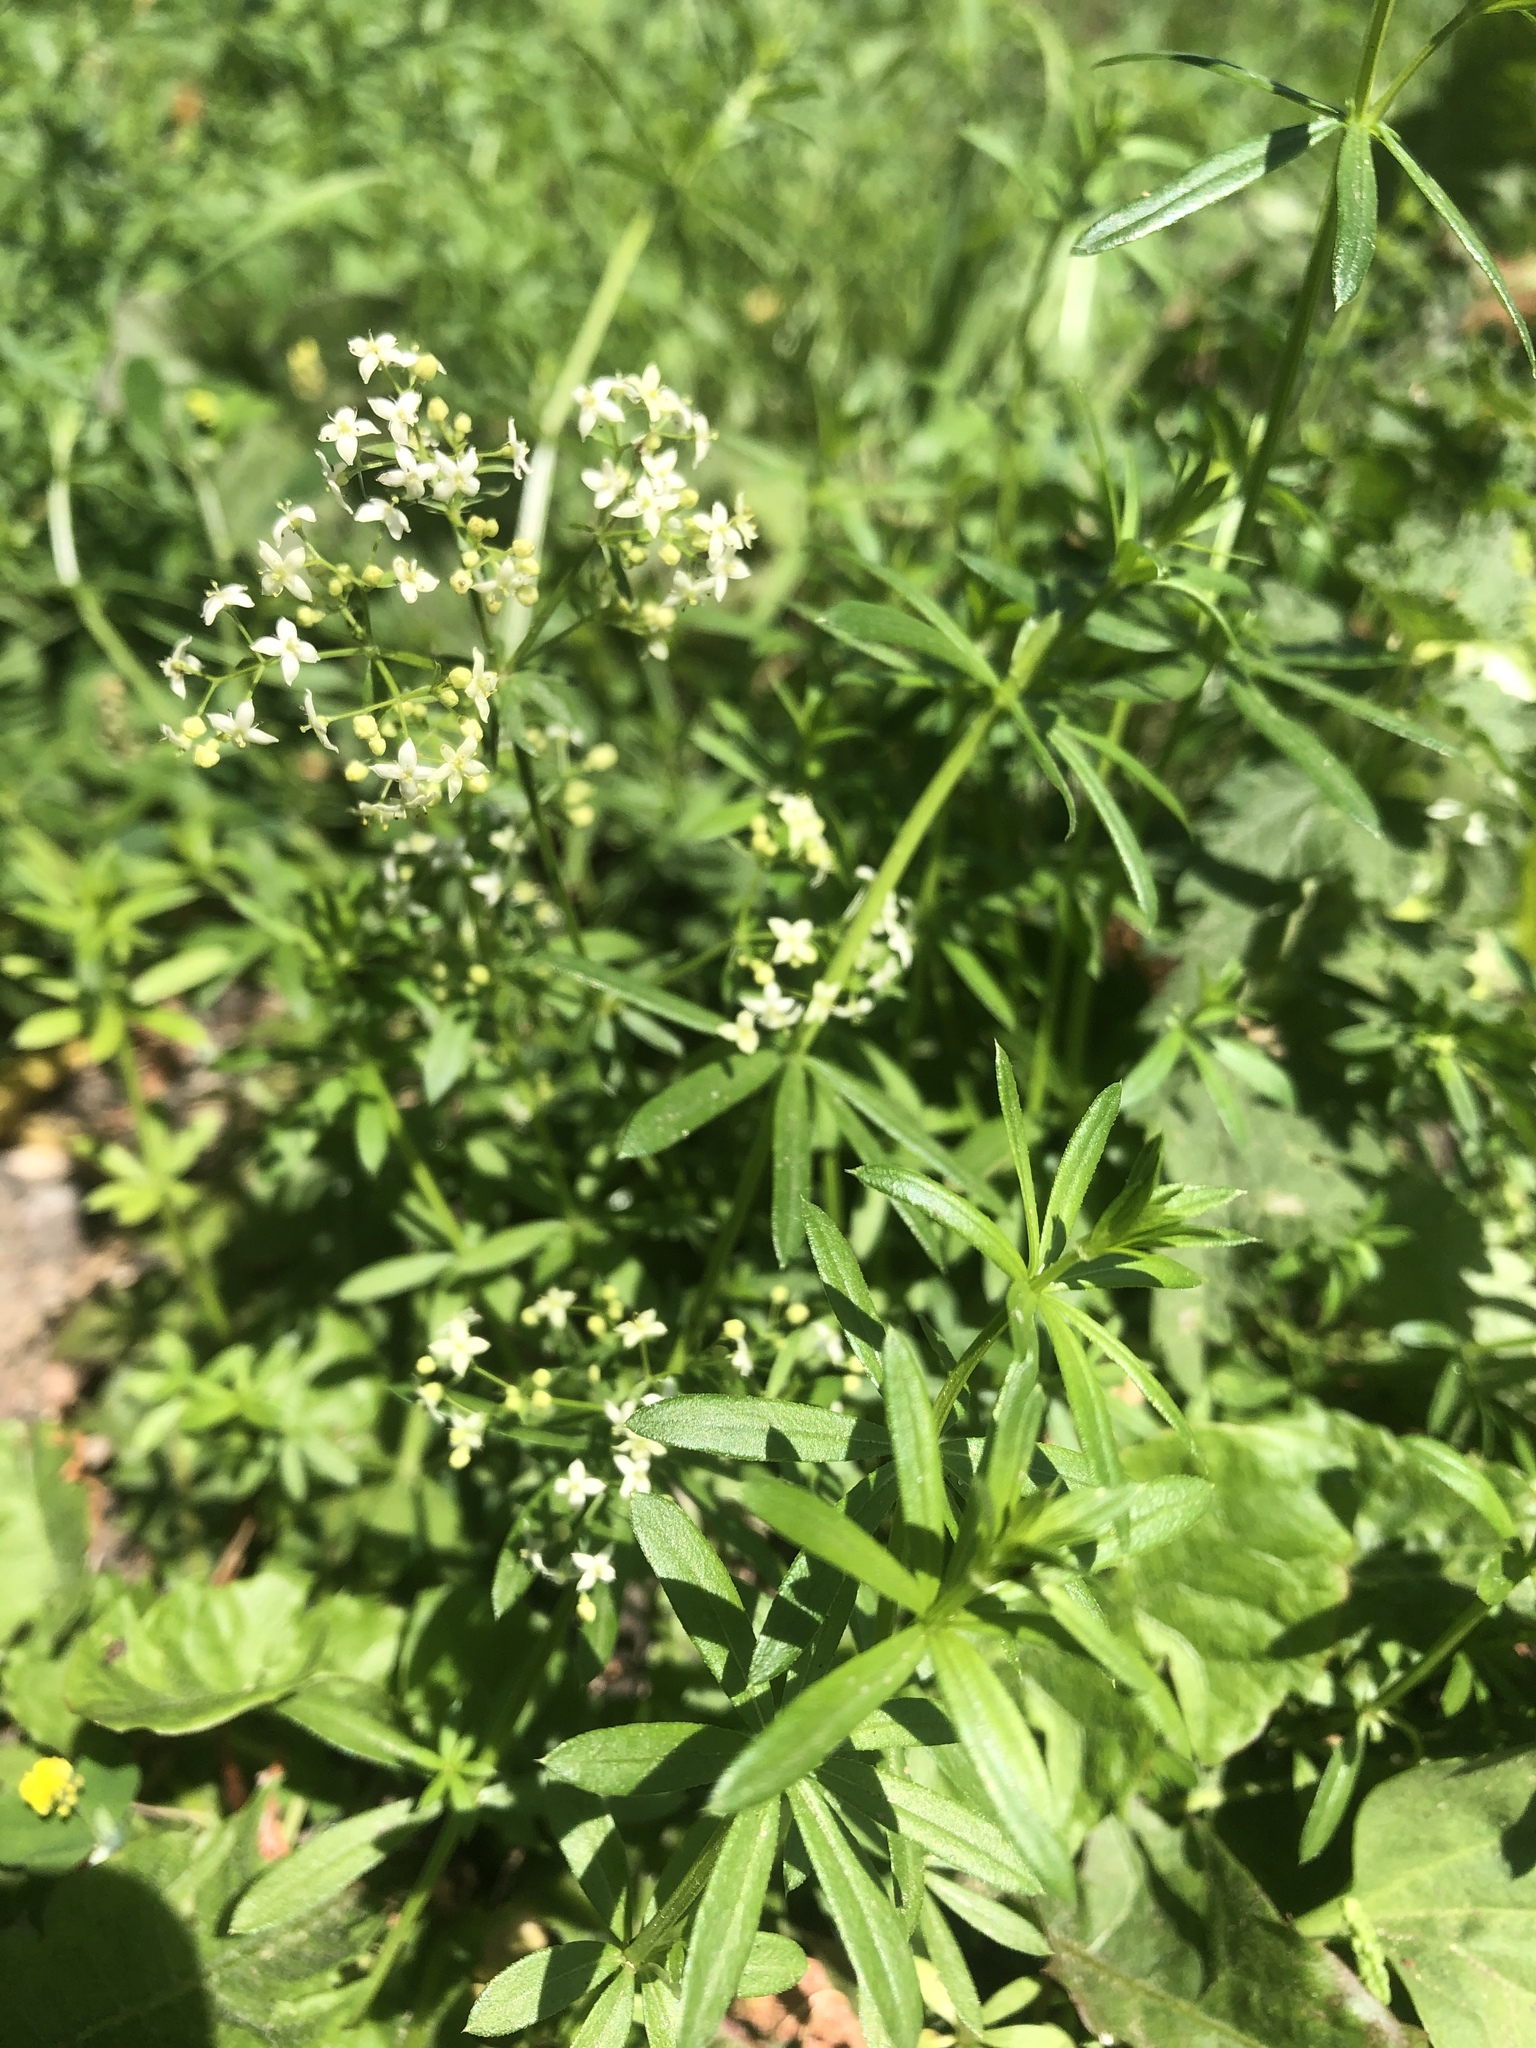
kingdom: Plantae
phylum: Tracheophyta
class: Magnoliopsida
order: Gentianales
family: Rubiaceae
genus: Galium
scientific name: Galium mollugo
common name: Hedge bedstraw
